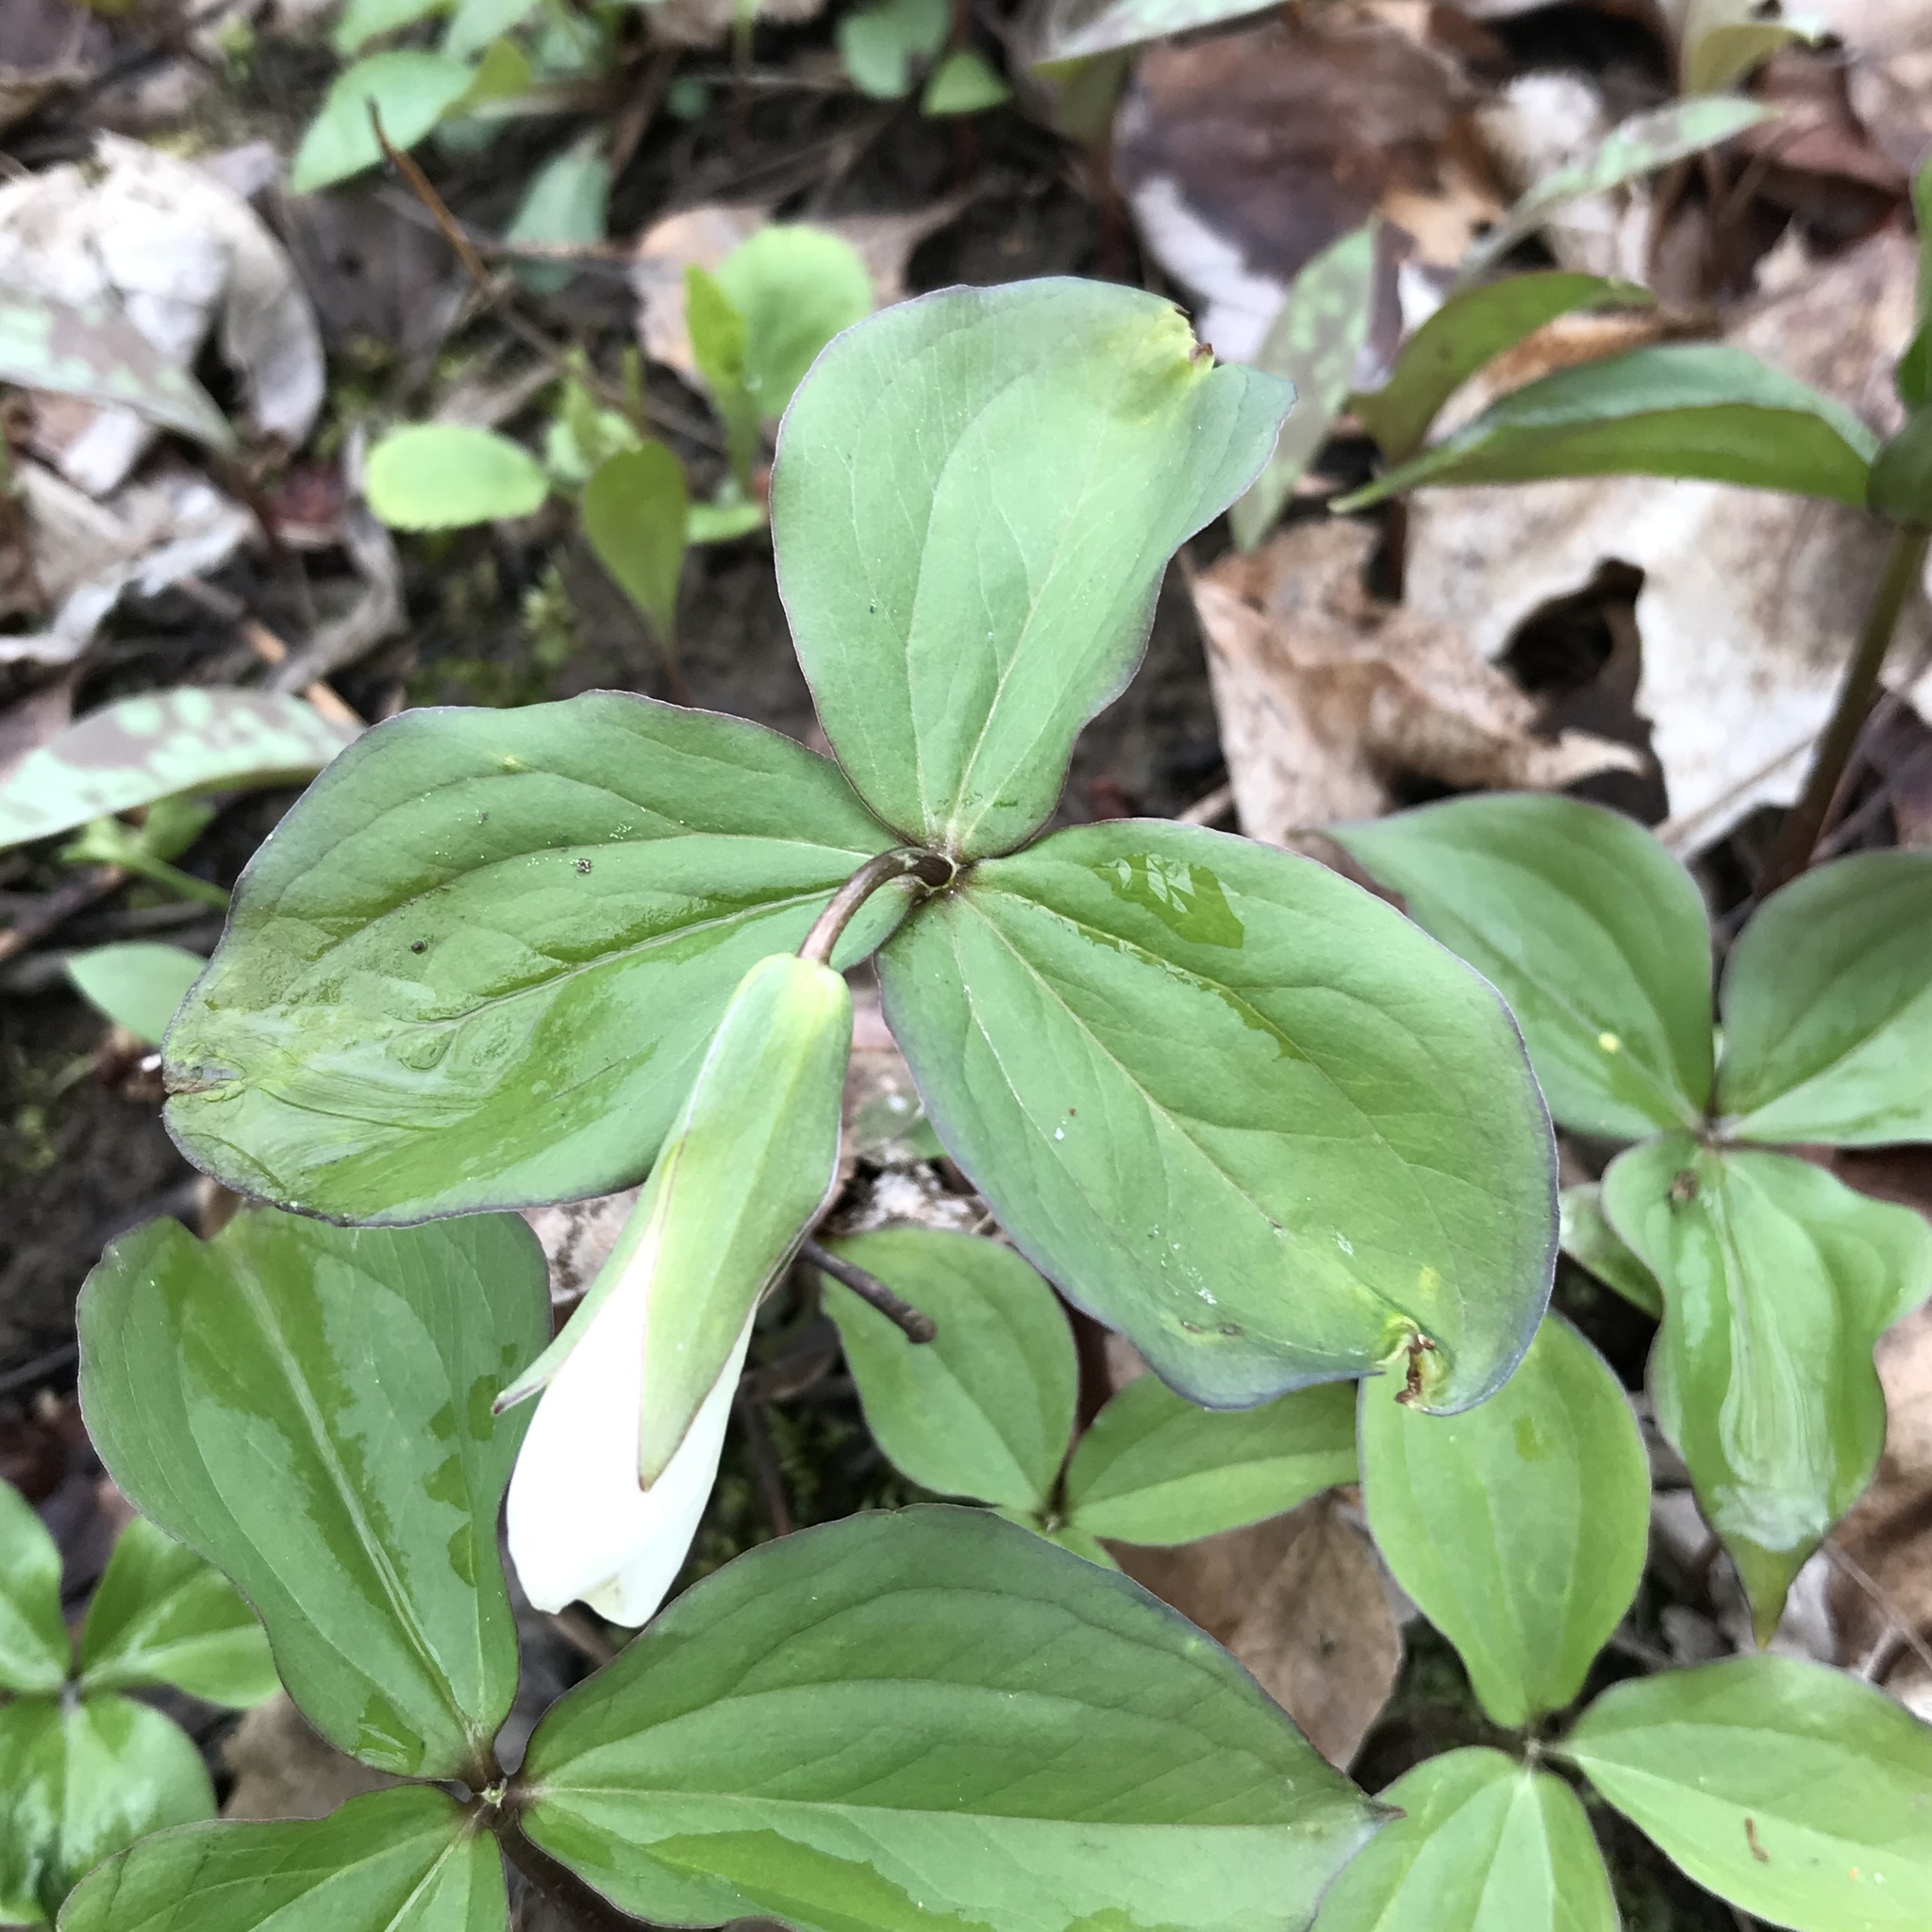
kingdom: Plantae
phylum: Tracheophyta
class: Liliopsida
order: Liliales
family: Melanthiaceae
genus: Trillium
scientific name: Trillium grandiflorum
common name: Great white trillium
